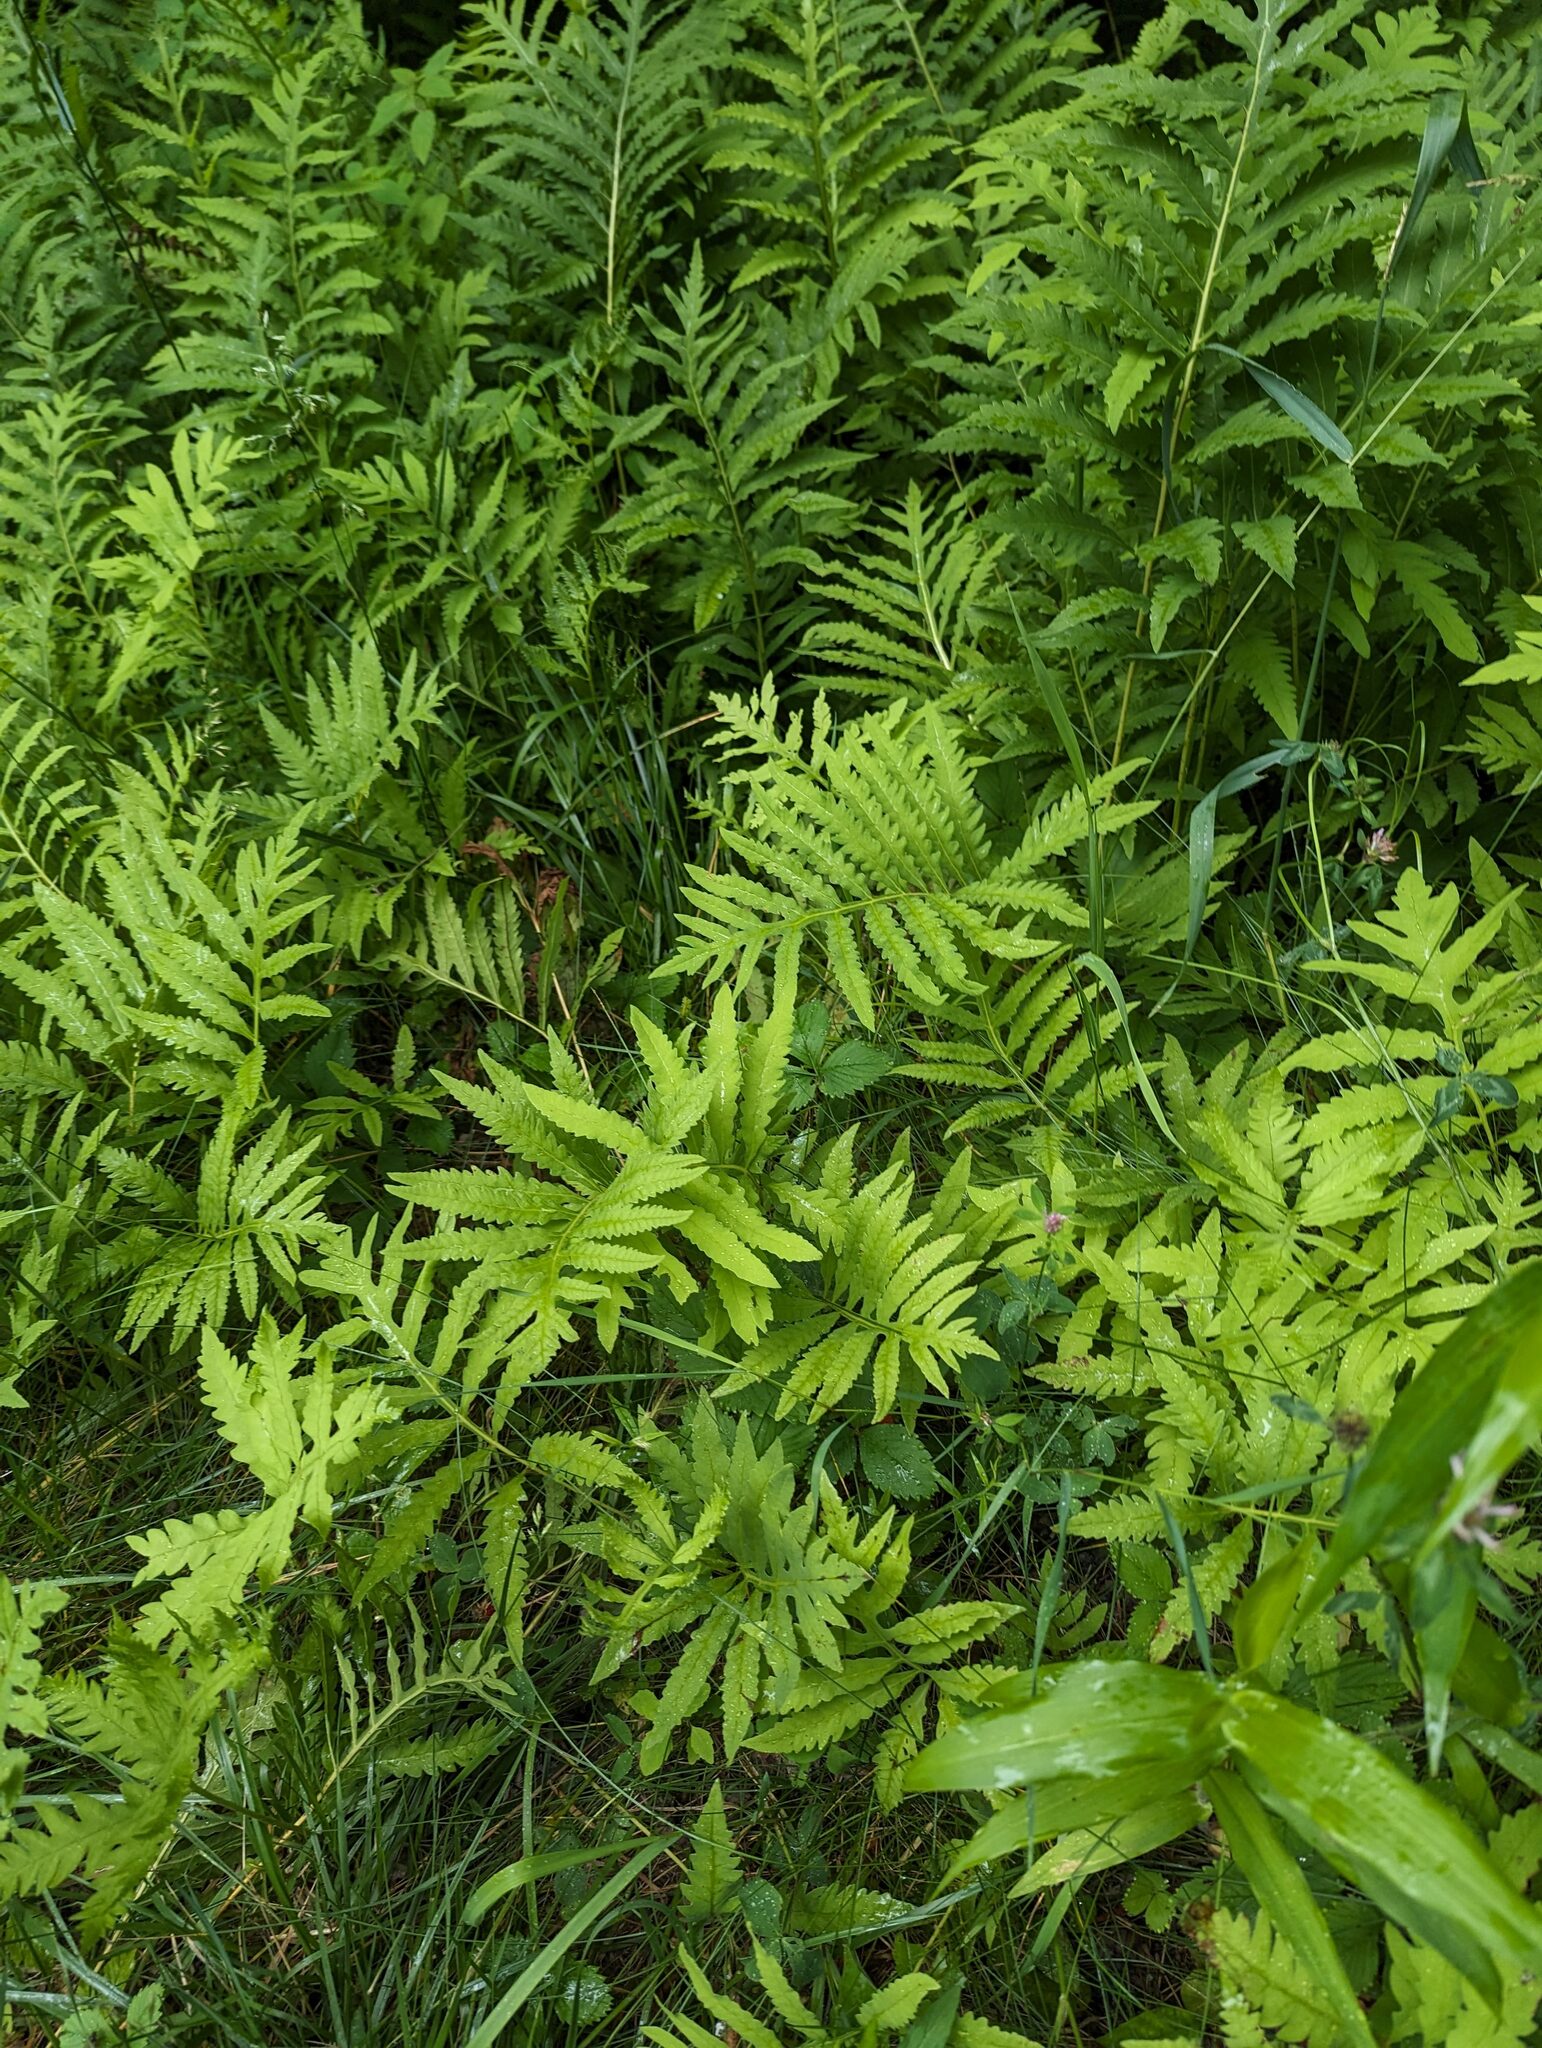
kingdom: Plantae
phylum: Tracheophyta
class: Polypodiopsida
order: Polypodiales
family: Onocleaceae
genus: Onoclea
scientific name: Onoclea sensibilis
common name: Sensitive fern
